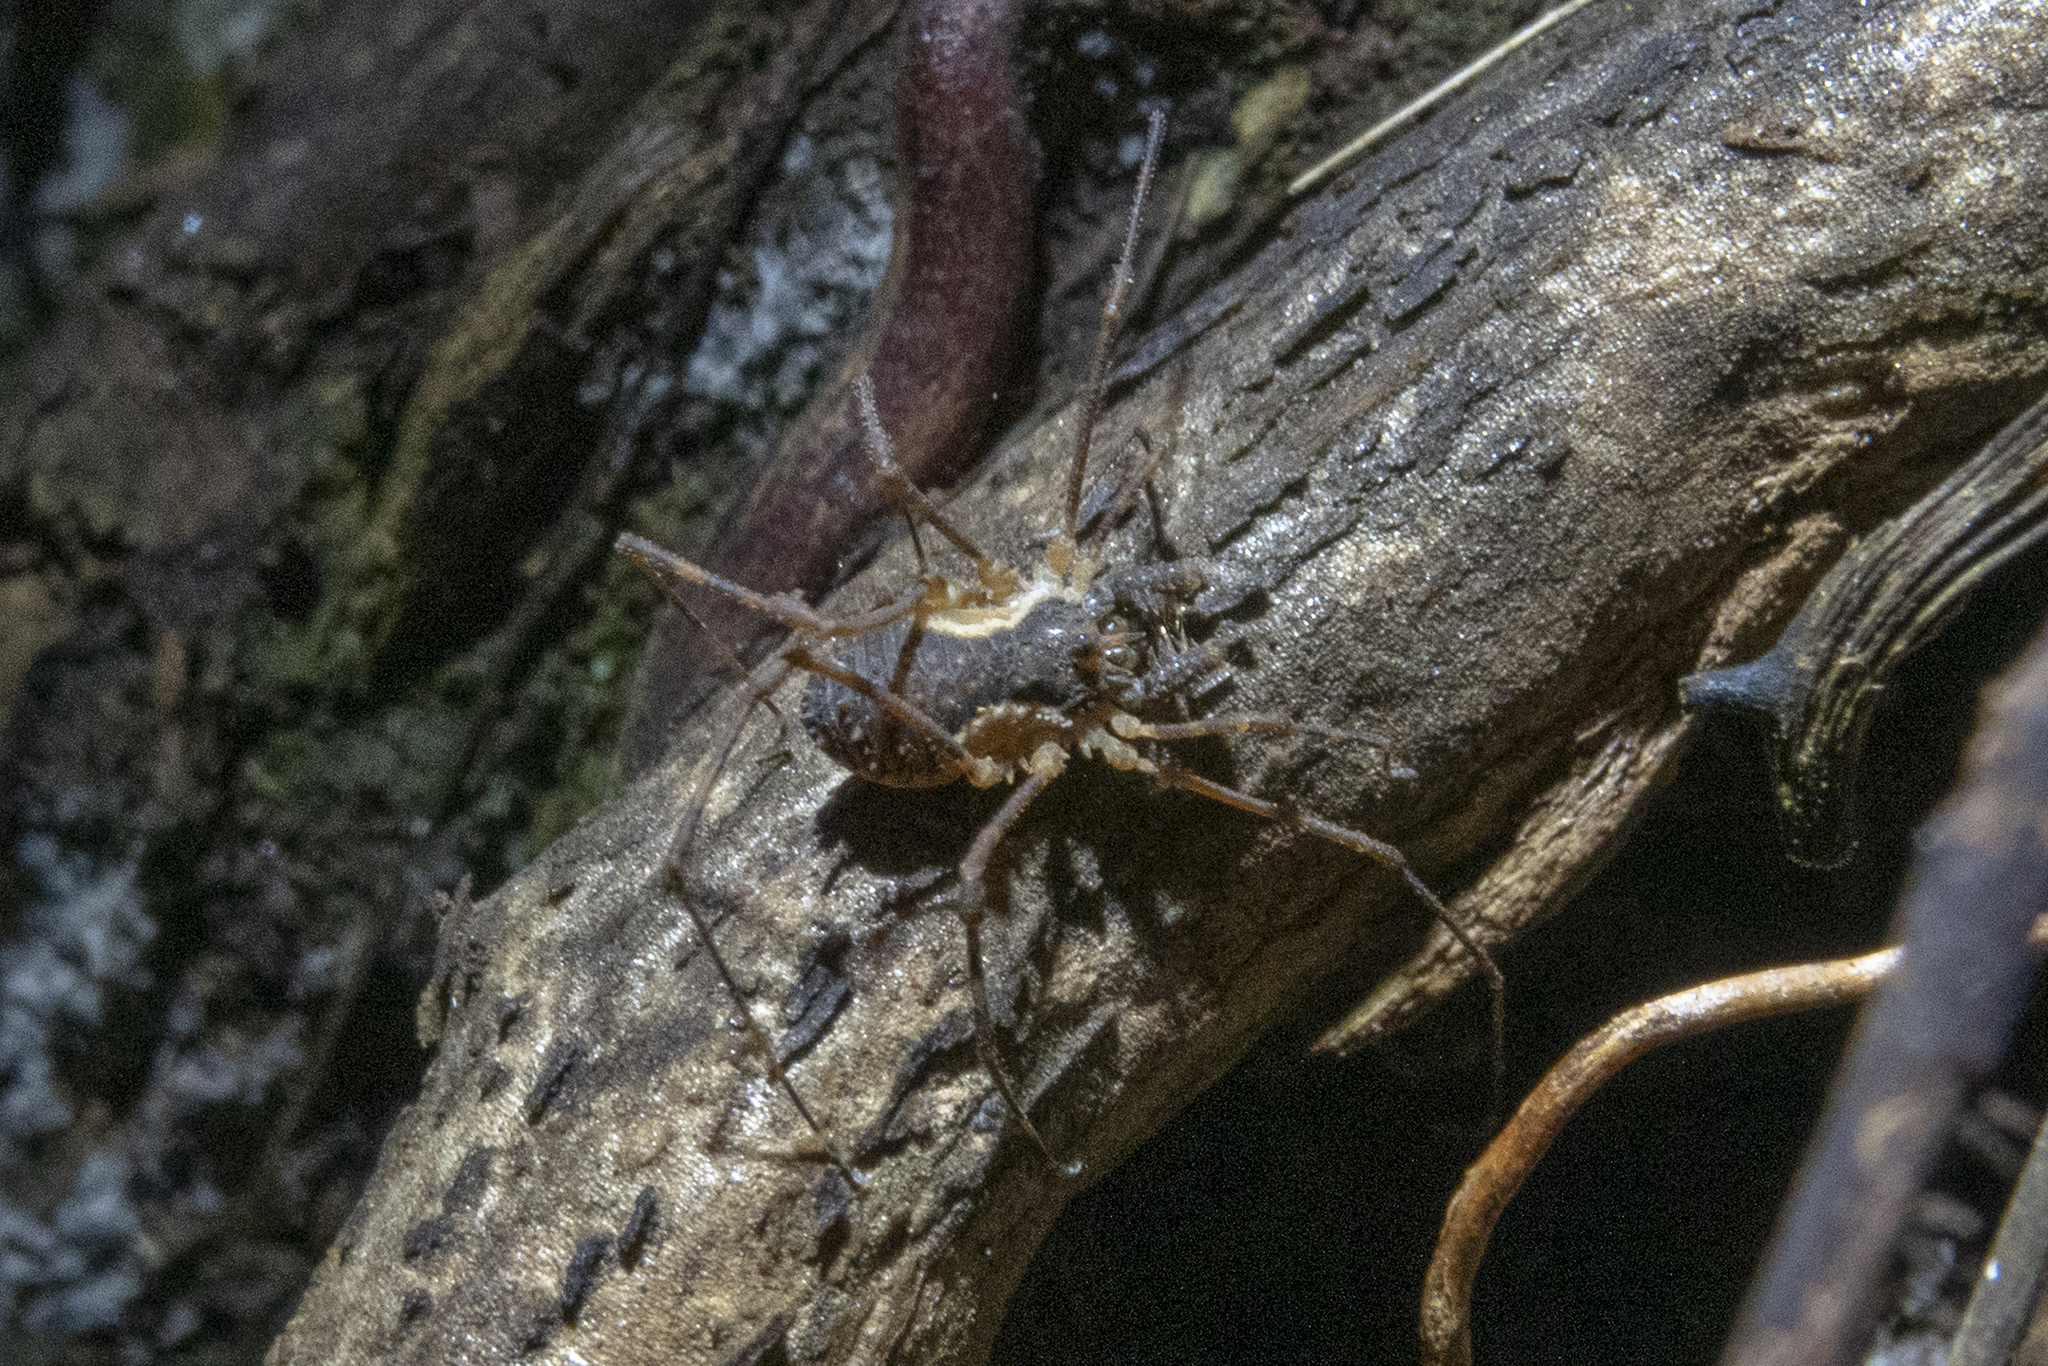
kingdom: Animalia
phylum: Arthropoda
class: Arachnida
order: Opiliones
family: Triaenonychidae
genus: Algidia
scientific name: Algidia interrupta
